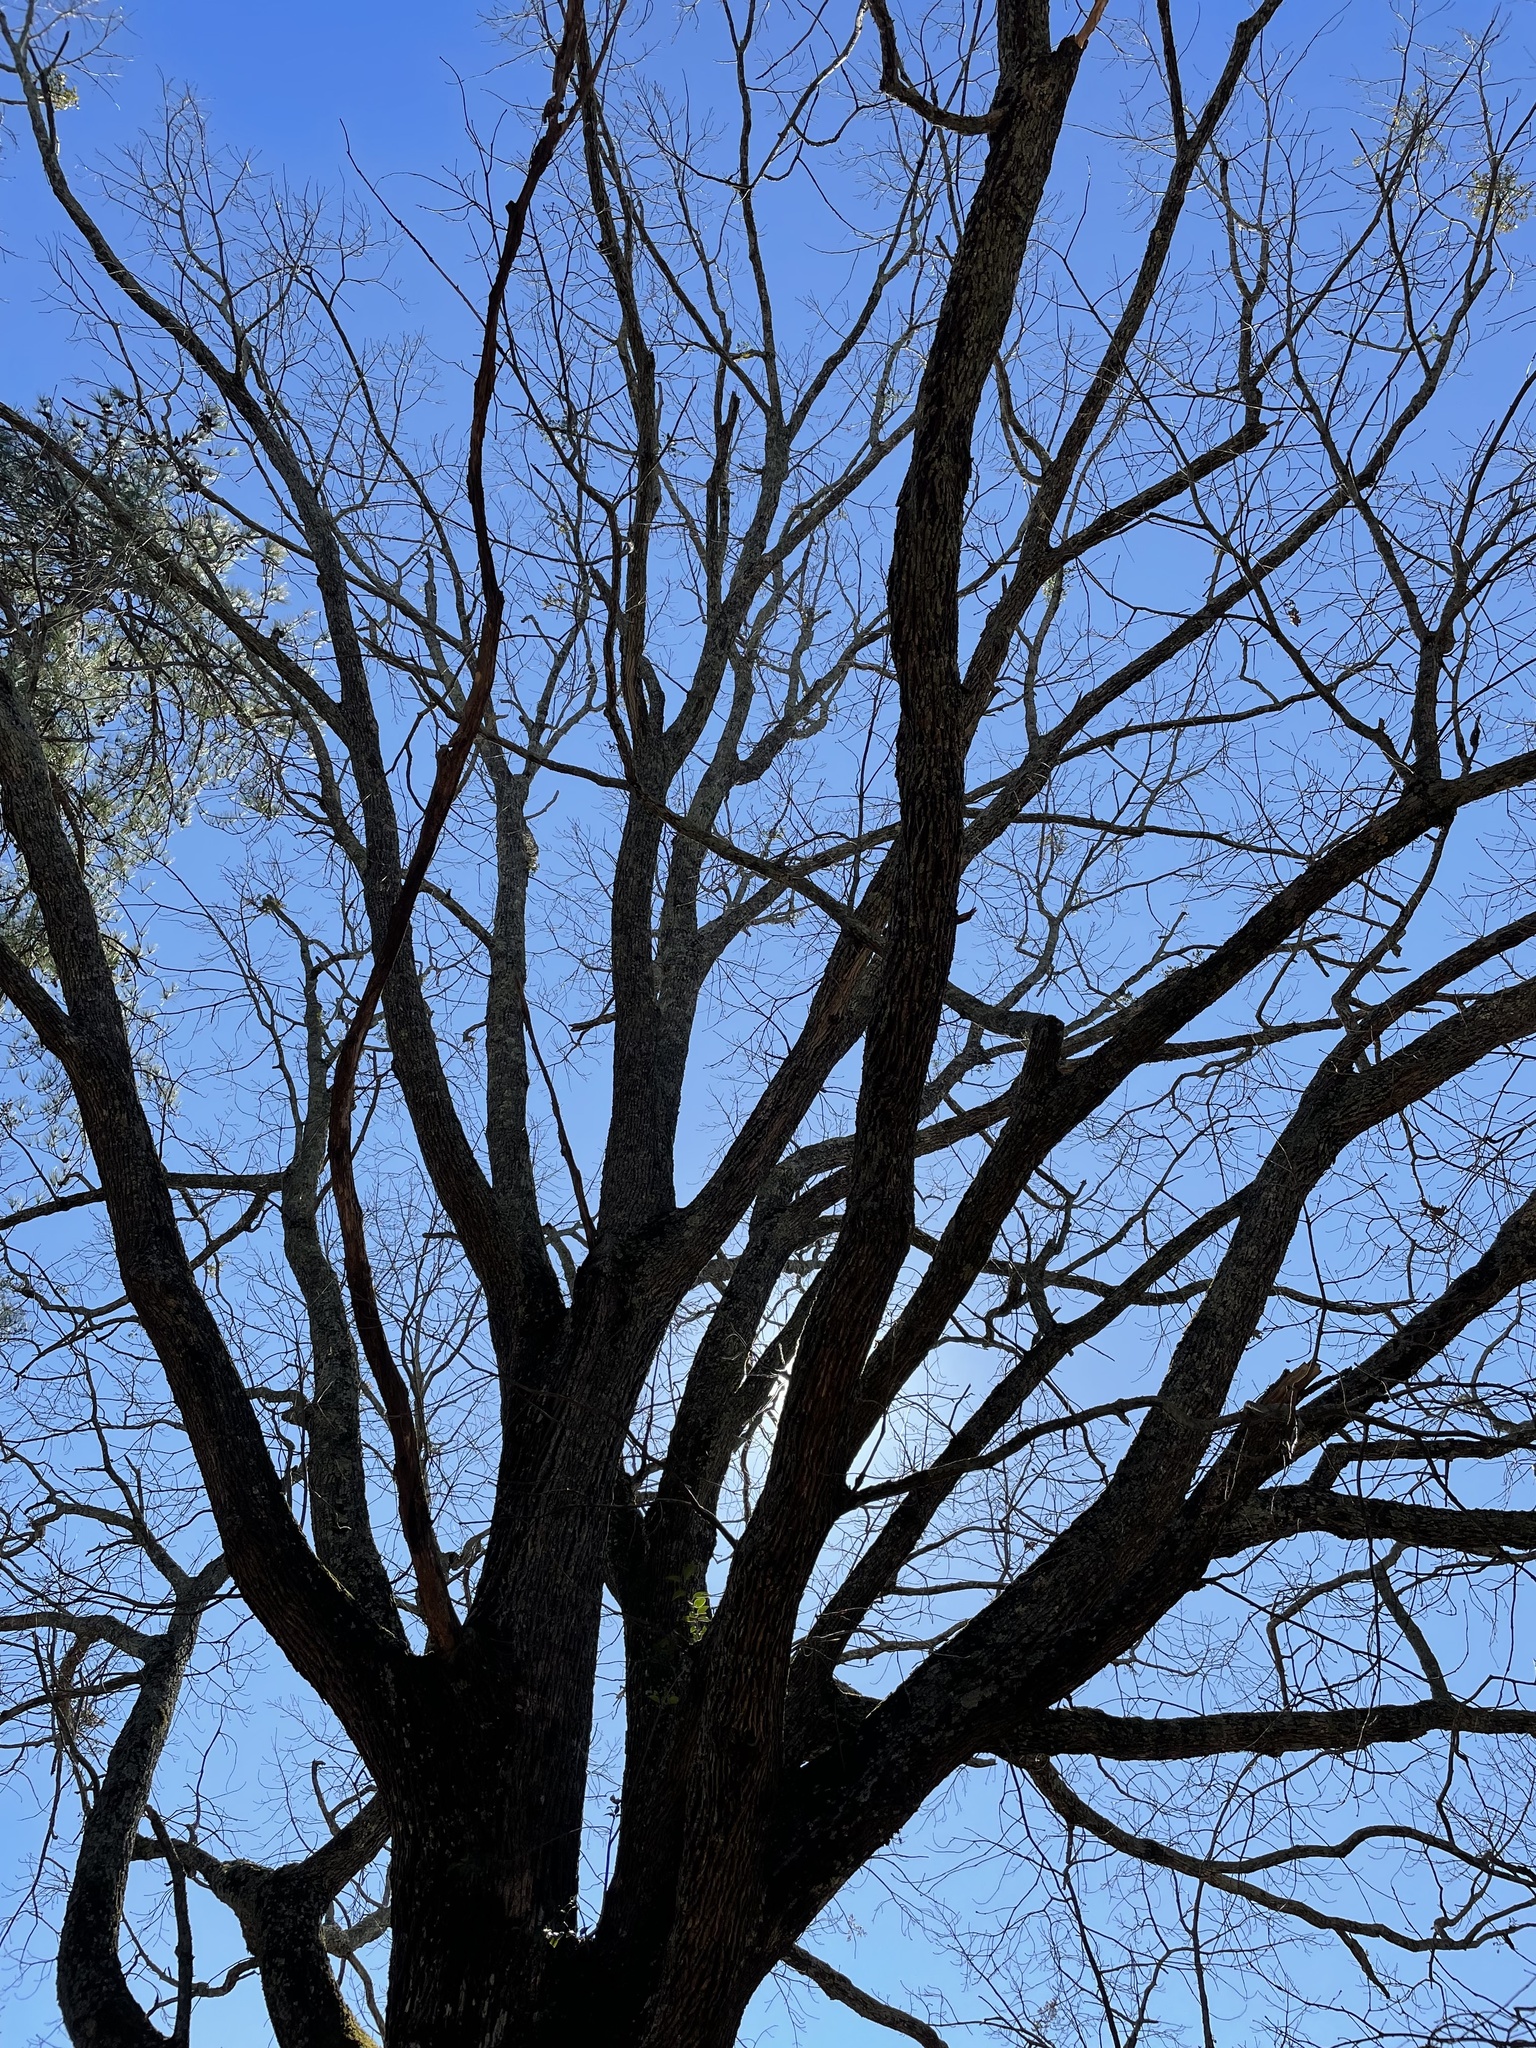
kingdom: Plantae
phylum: Tracheophyta
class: Magnoliopsida
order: Fagales
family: Fagaceae
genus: Quercus
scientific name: Quercus alba
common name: White oak
